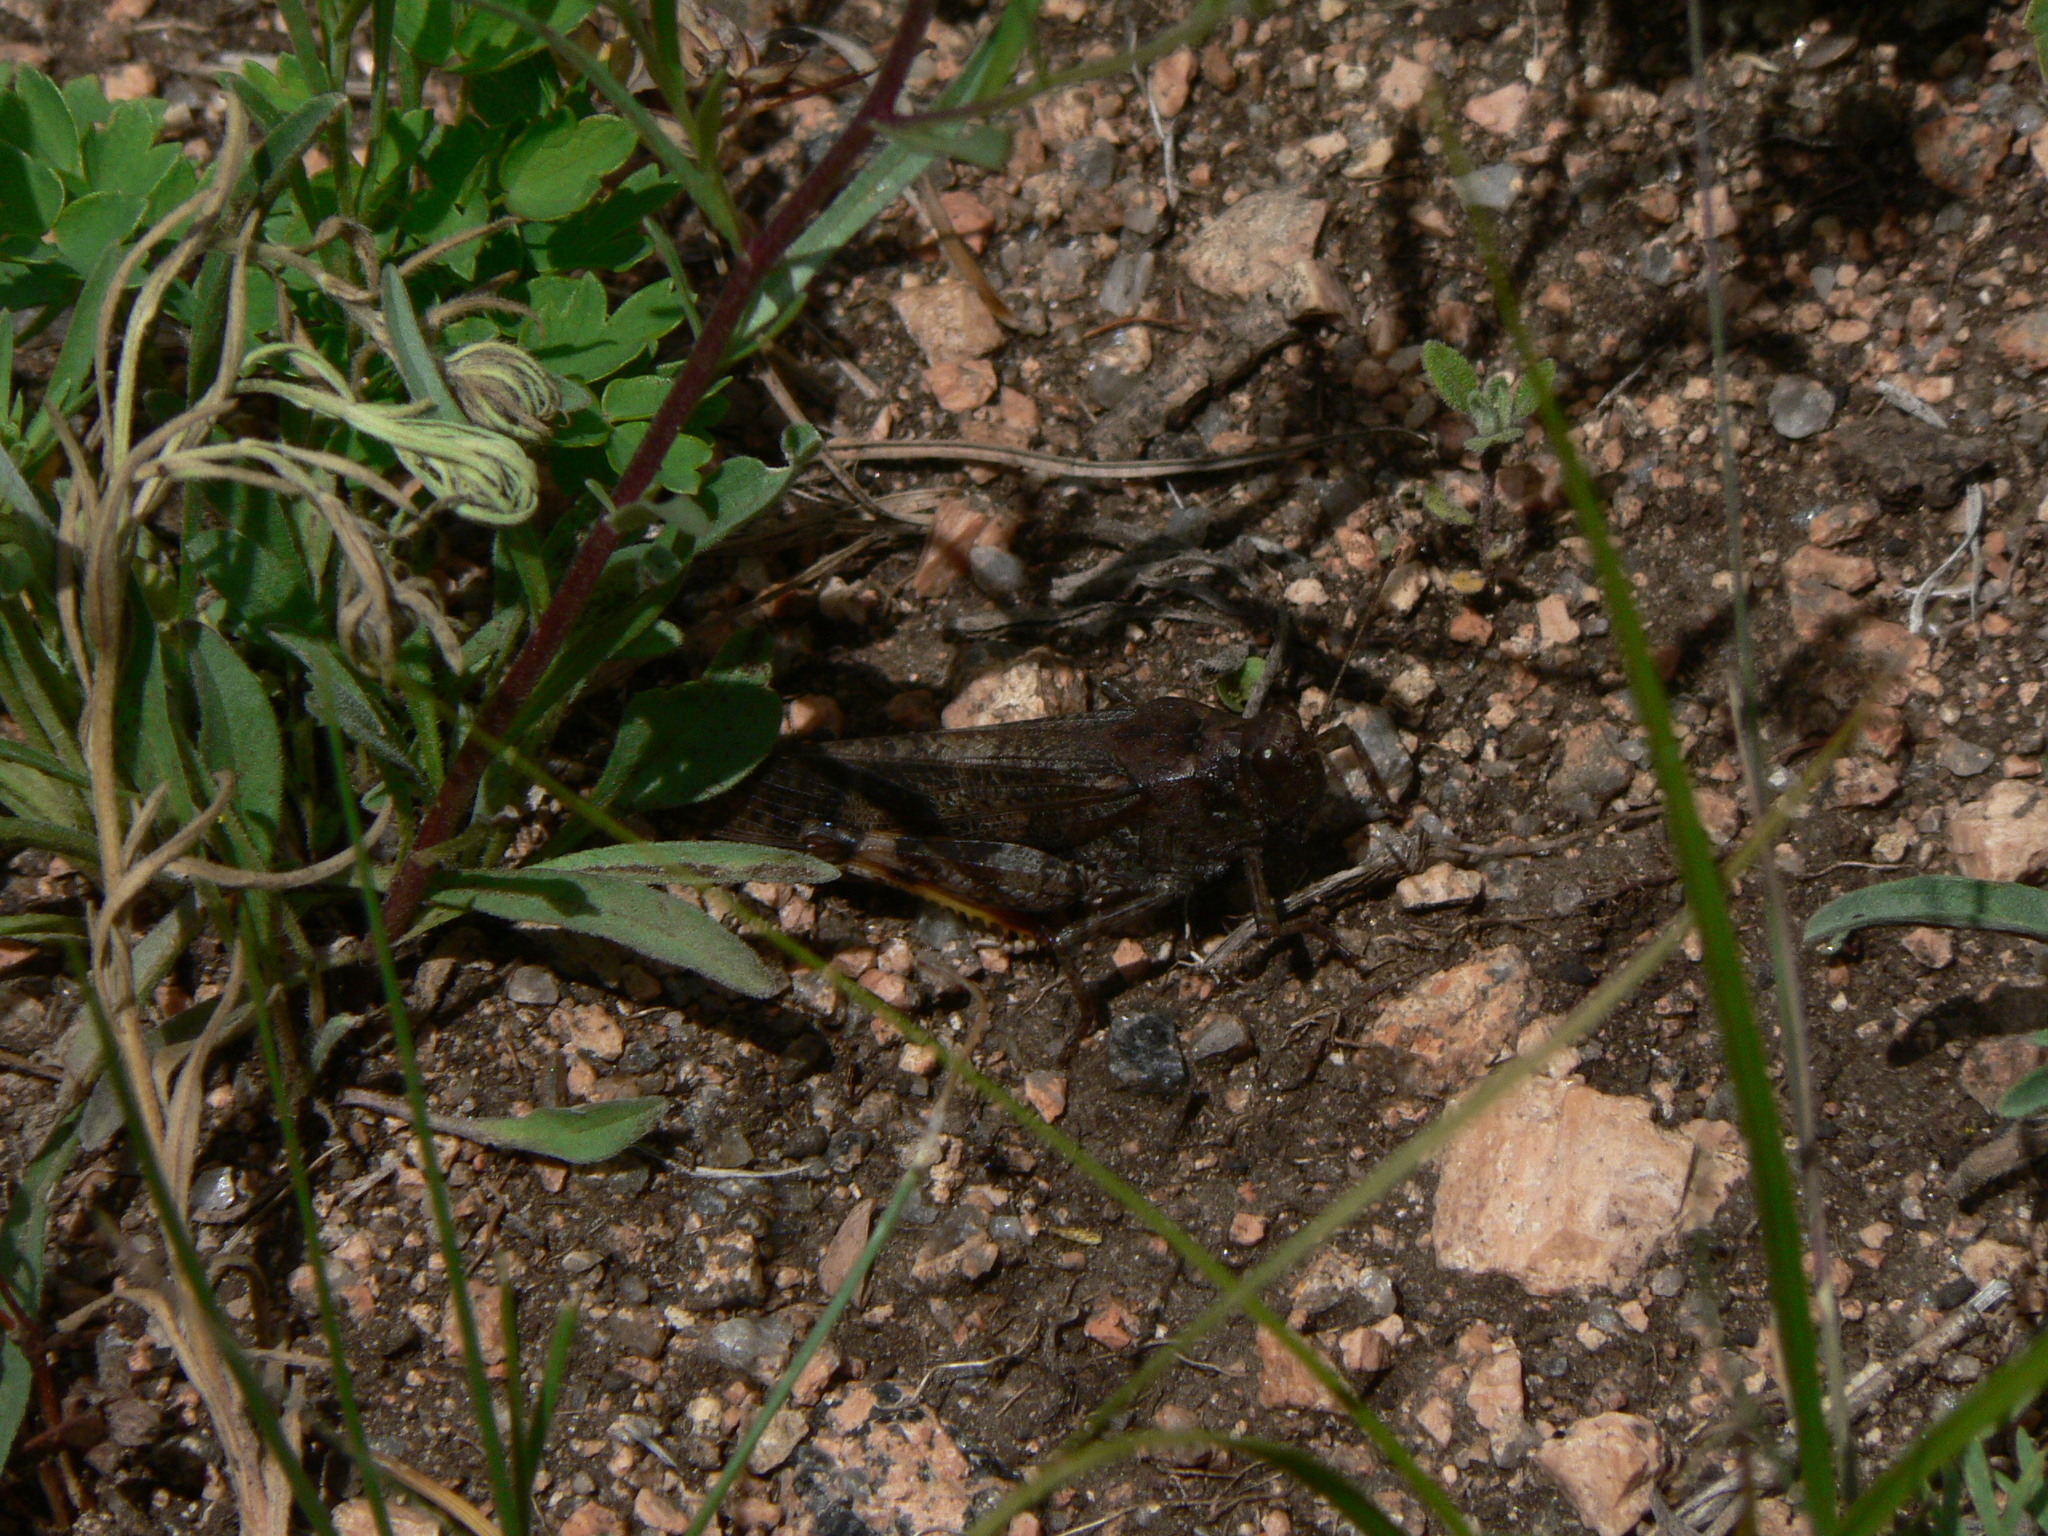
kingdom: Animalia
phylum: Arthropoda
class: Insecta
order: Orthoptera
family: Acrididae
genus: Bryodemella
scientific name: Bryodemella holdereri
